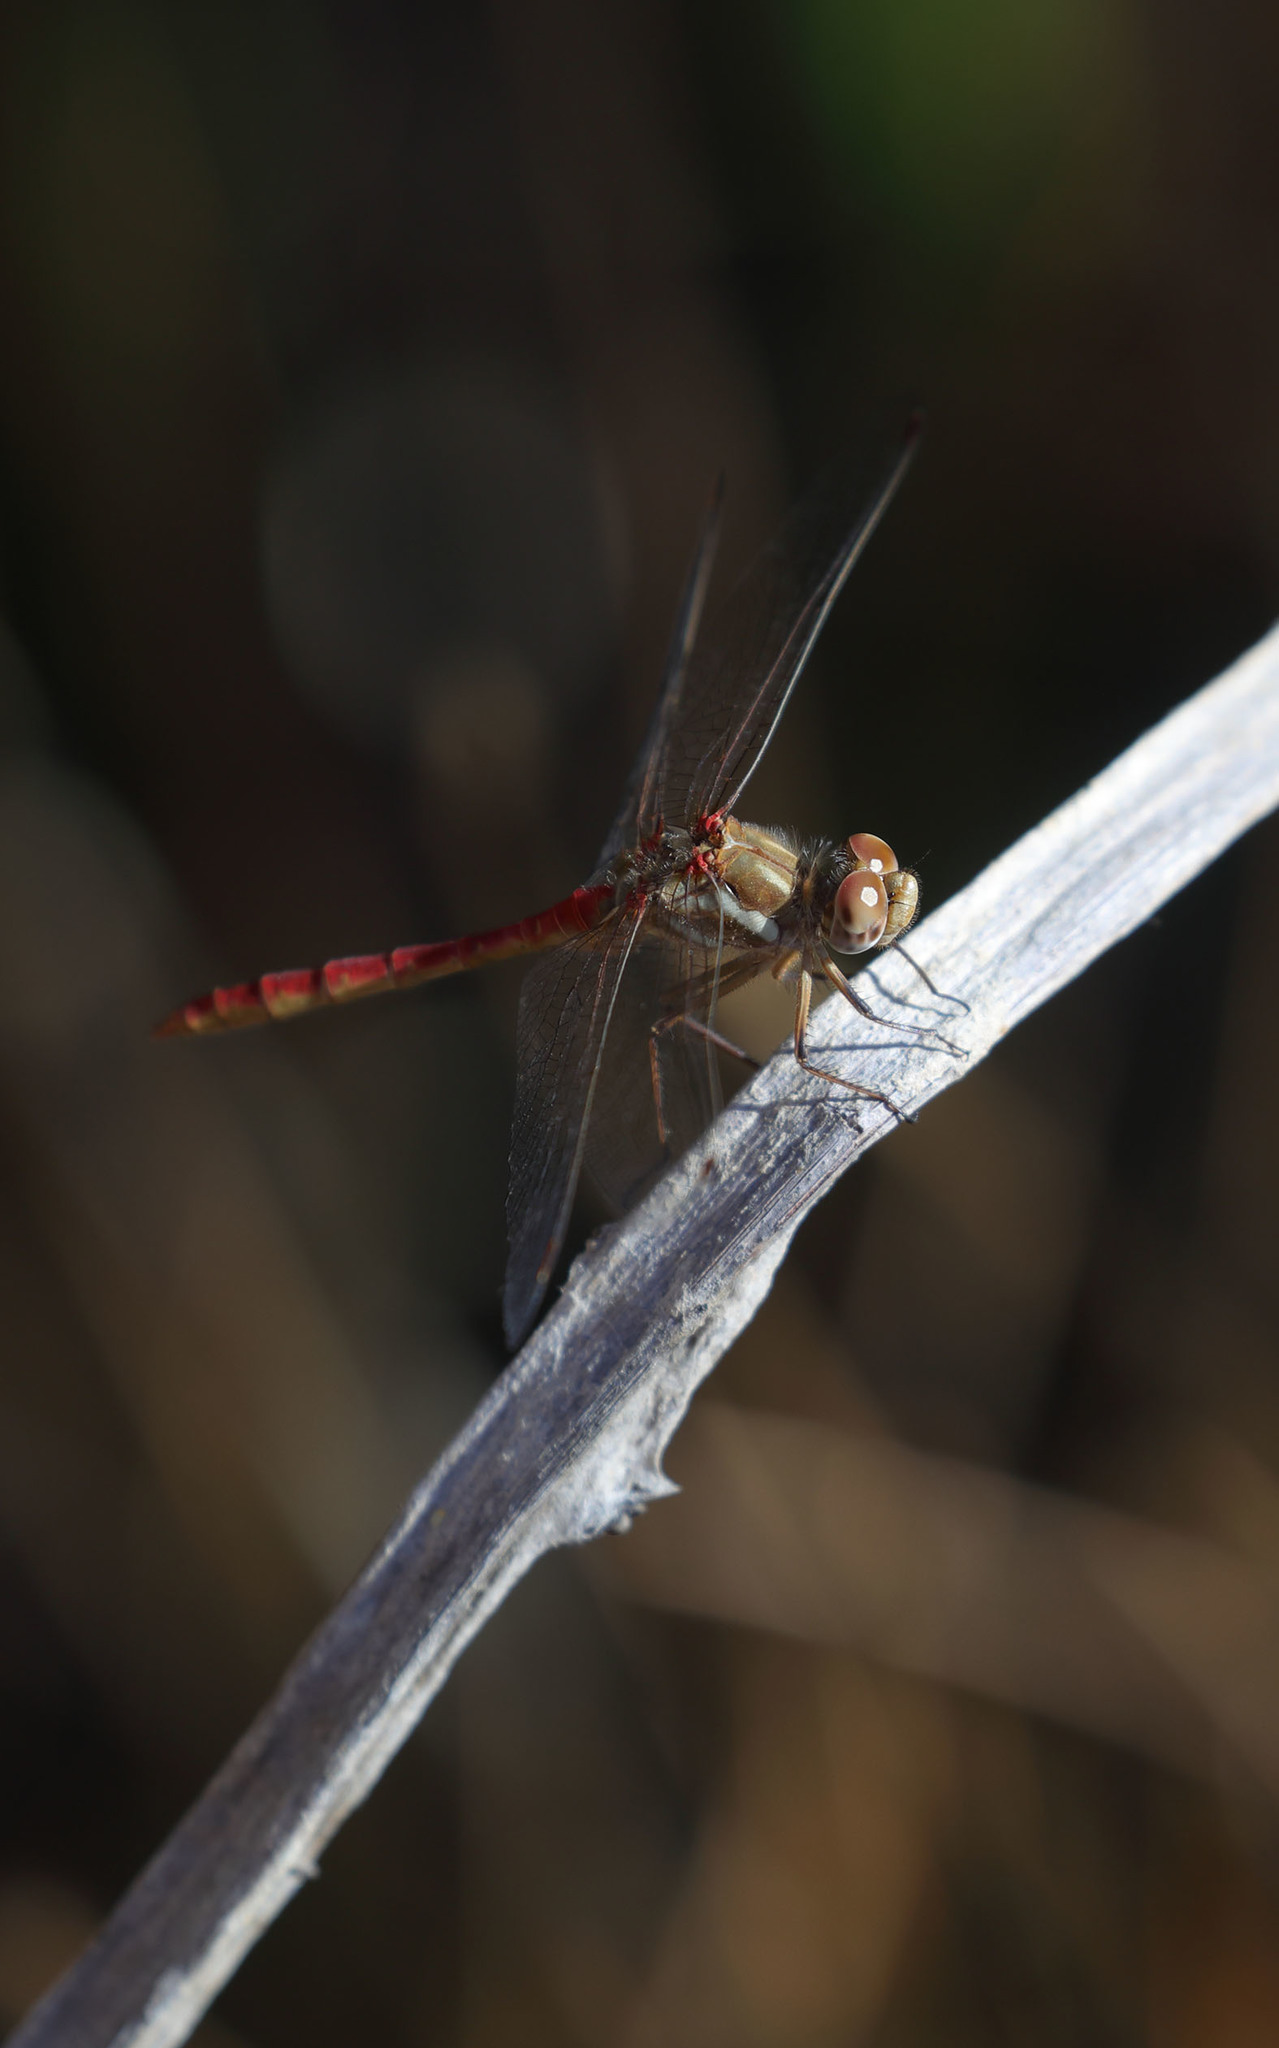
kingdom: Animalia
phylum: Arthropoda
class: Insecta
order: Odonata
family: Libellulidae
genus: Sympetrum
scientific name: Sympetrum pallipes
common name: Striped meadowhawk
